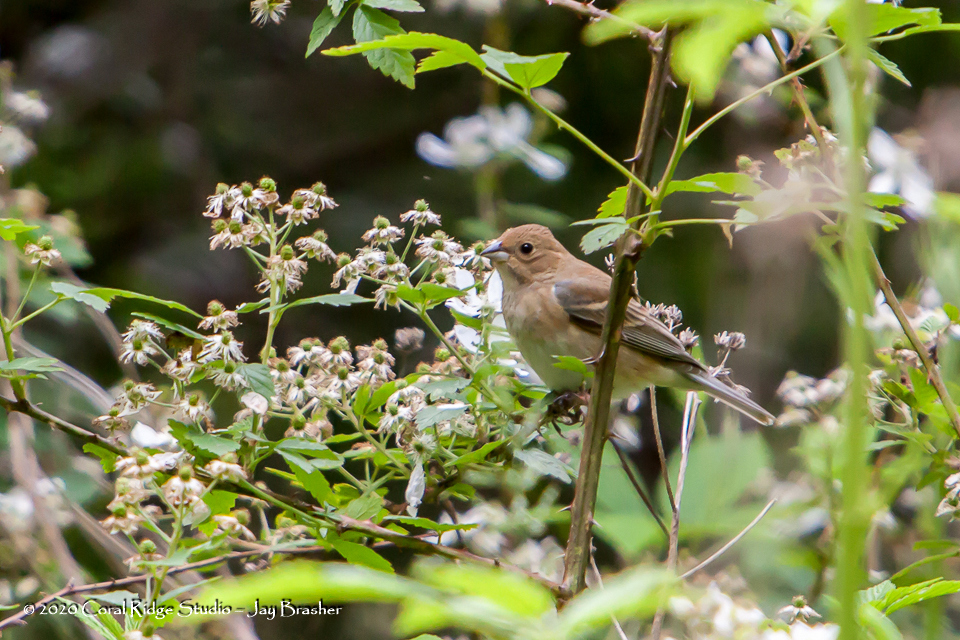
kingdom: Animalia
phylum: Chordata
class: Aves
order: Passeriformes
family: Cardinalidae
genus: Passerina
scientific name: Passerina cyanea
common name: Indigo bunting
